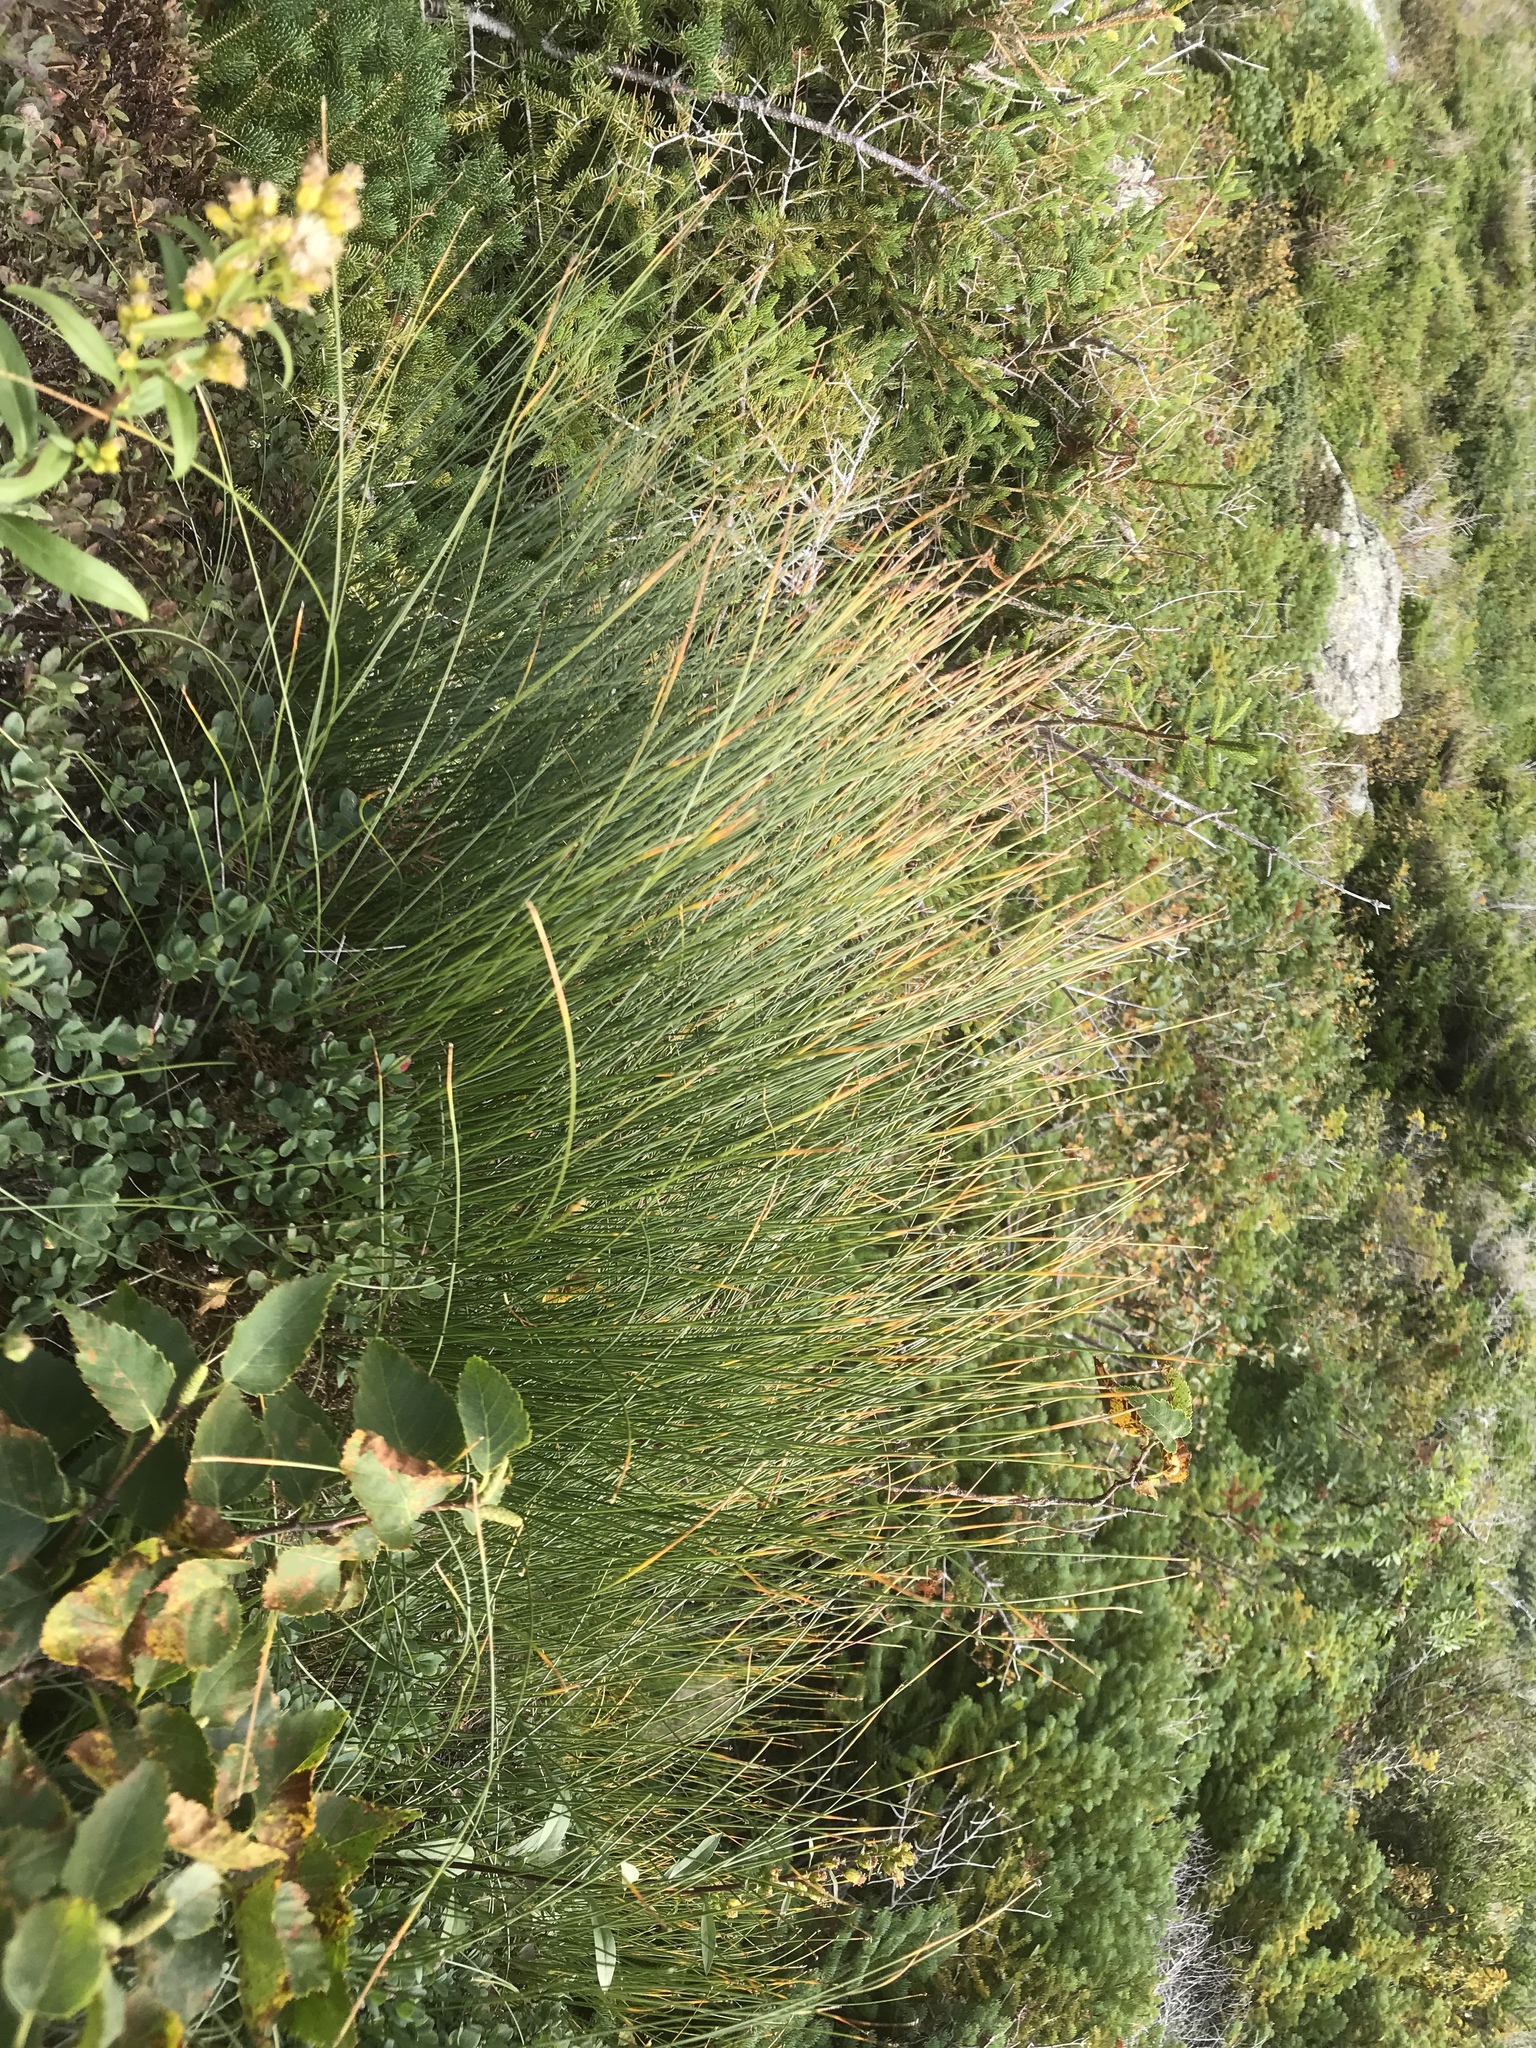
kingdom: Plantae
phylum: Tracheophyta
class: Liliopsida
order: Poales
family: Cyperaceae
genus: Trichophorum
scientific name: Trichophorum cespitosum
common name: Cespitose bulrush
